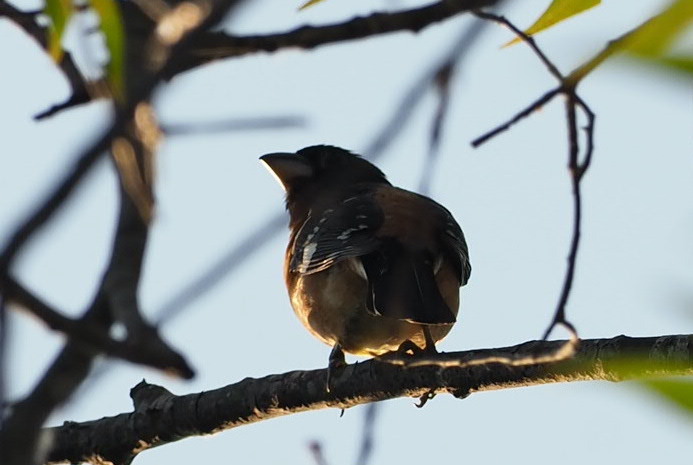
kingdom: Animalia
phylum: Chordata
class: Aves
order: Passeriformes
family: Cardinalidae
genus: Pheucticus
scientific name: Pheucticus melanocephalus
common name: Black-headed grosbeak
